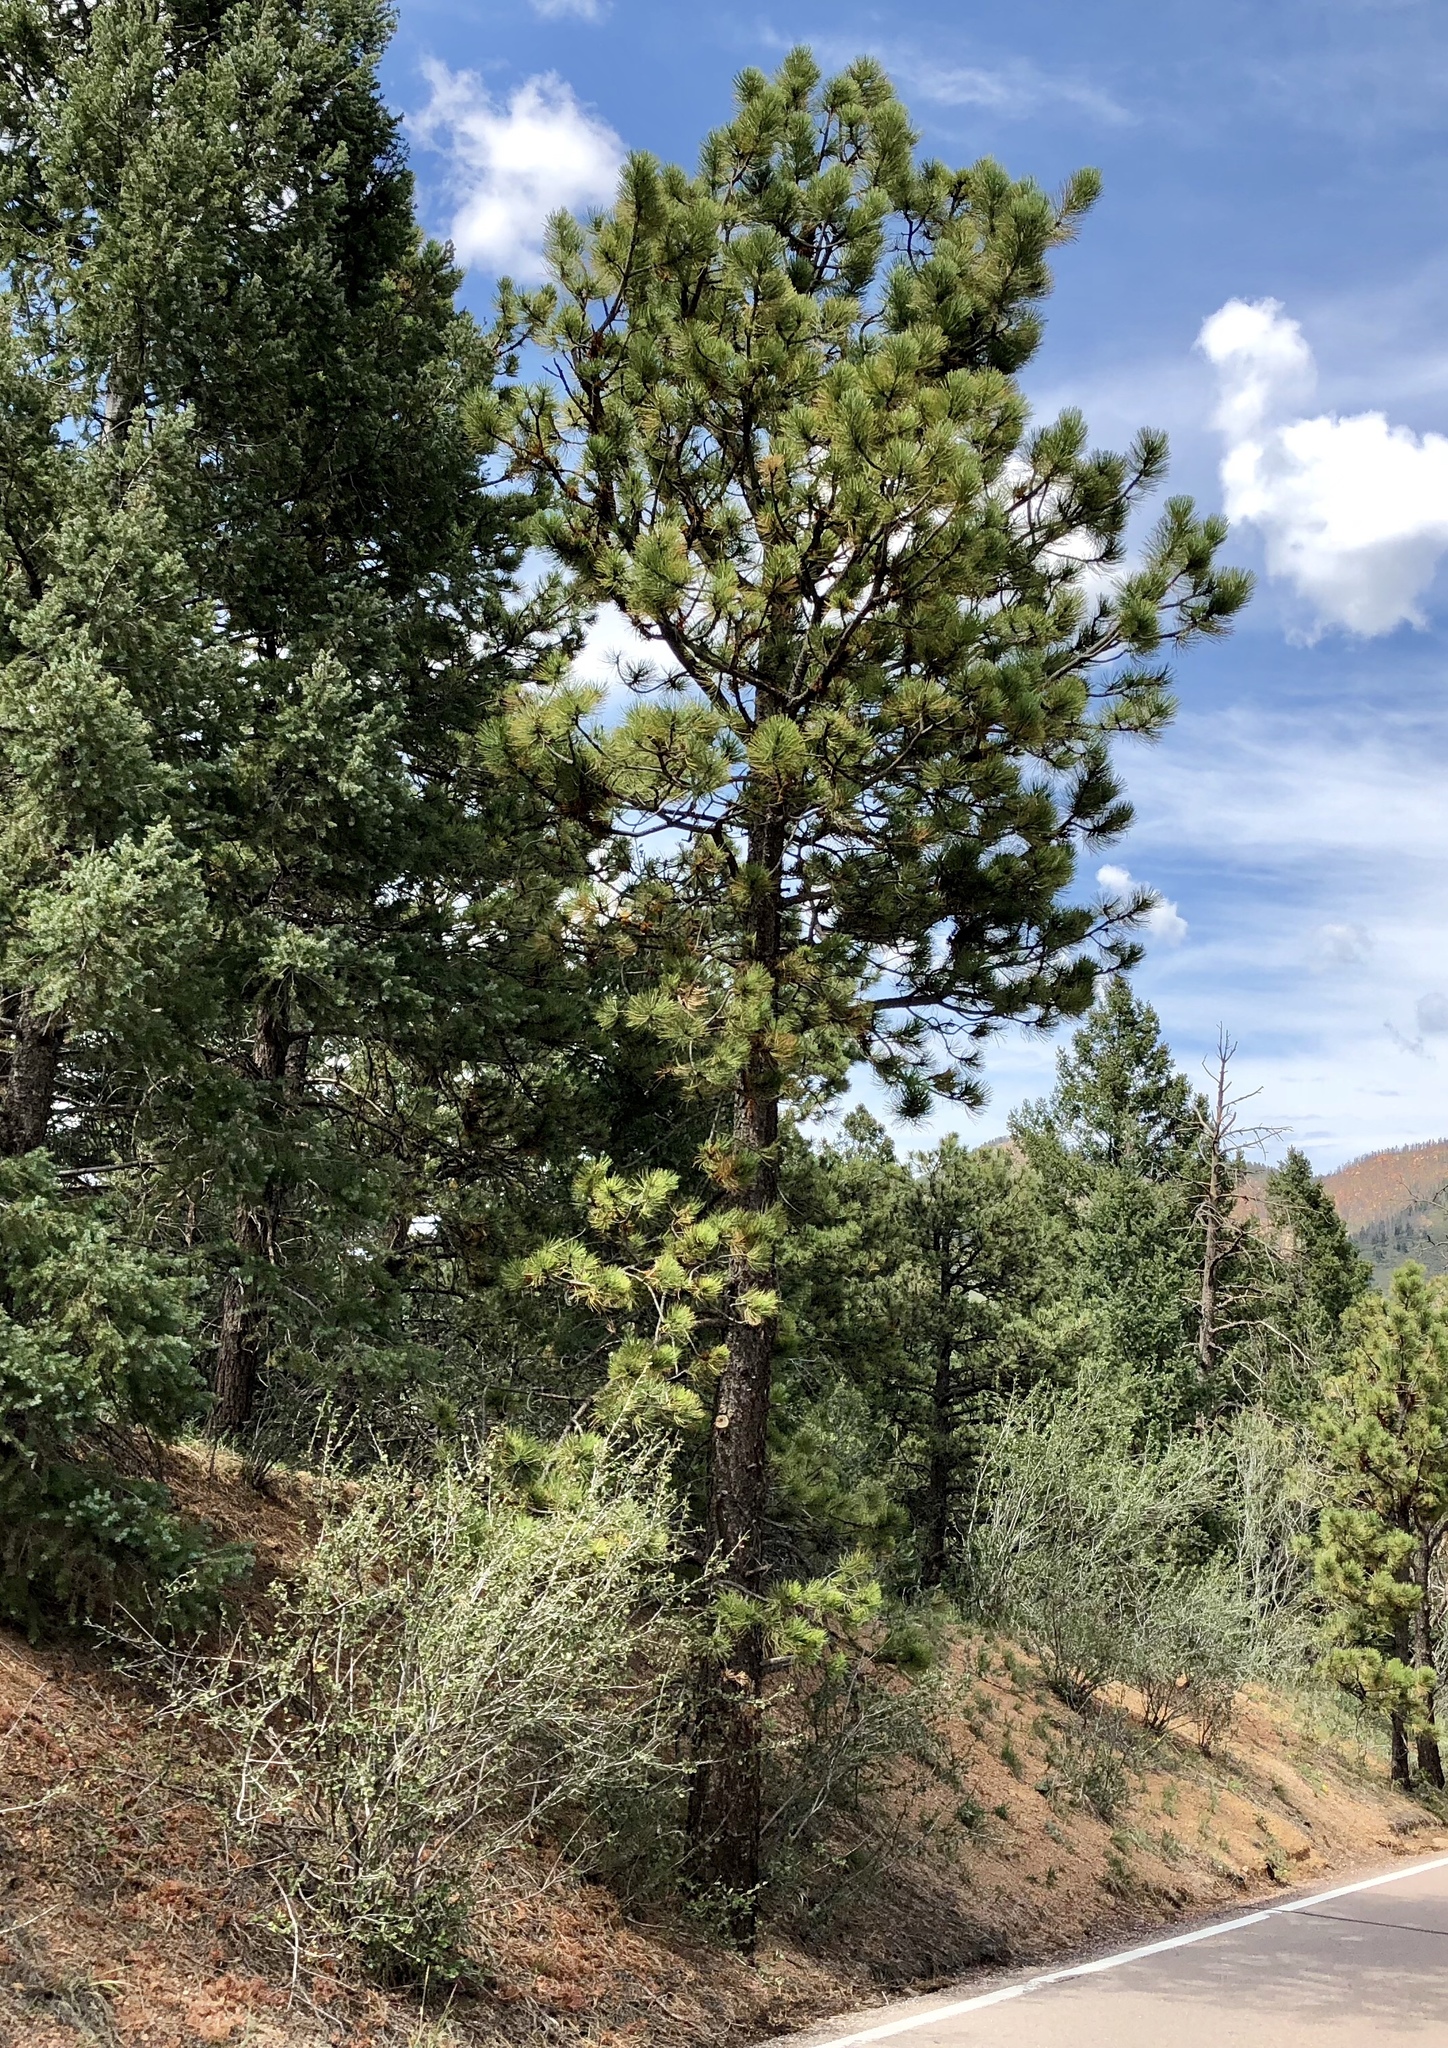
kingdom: Plantae
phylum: Tracheophyta
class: Pinopsida
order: Pinales
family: Pinaceae
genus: Pinus
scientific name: Pinus ponderosa
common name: Western yellow-pine
